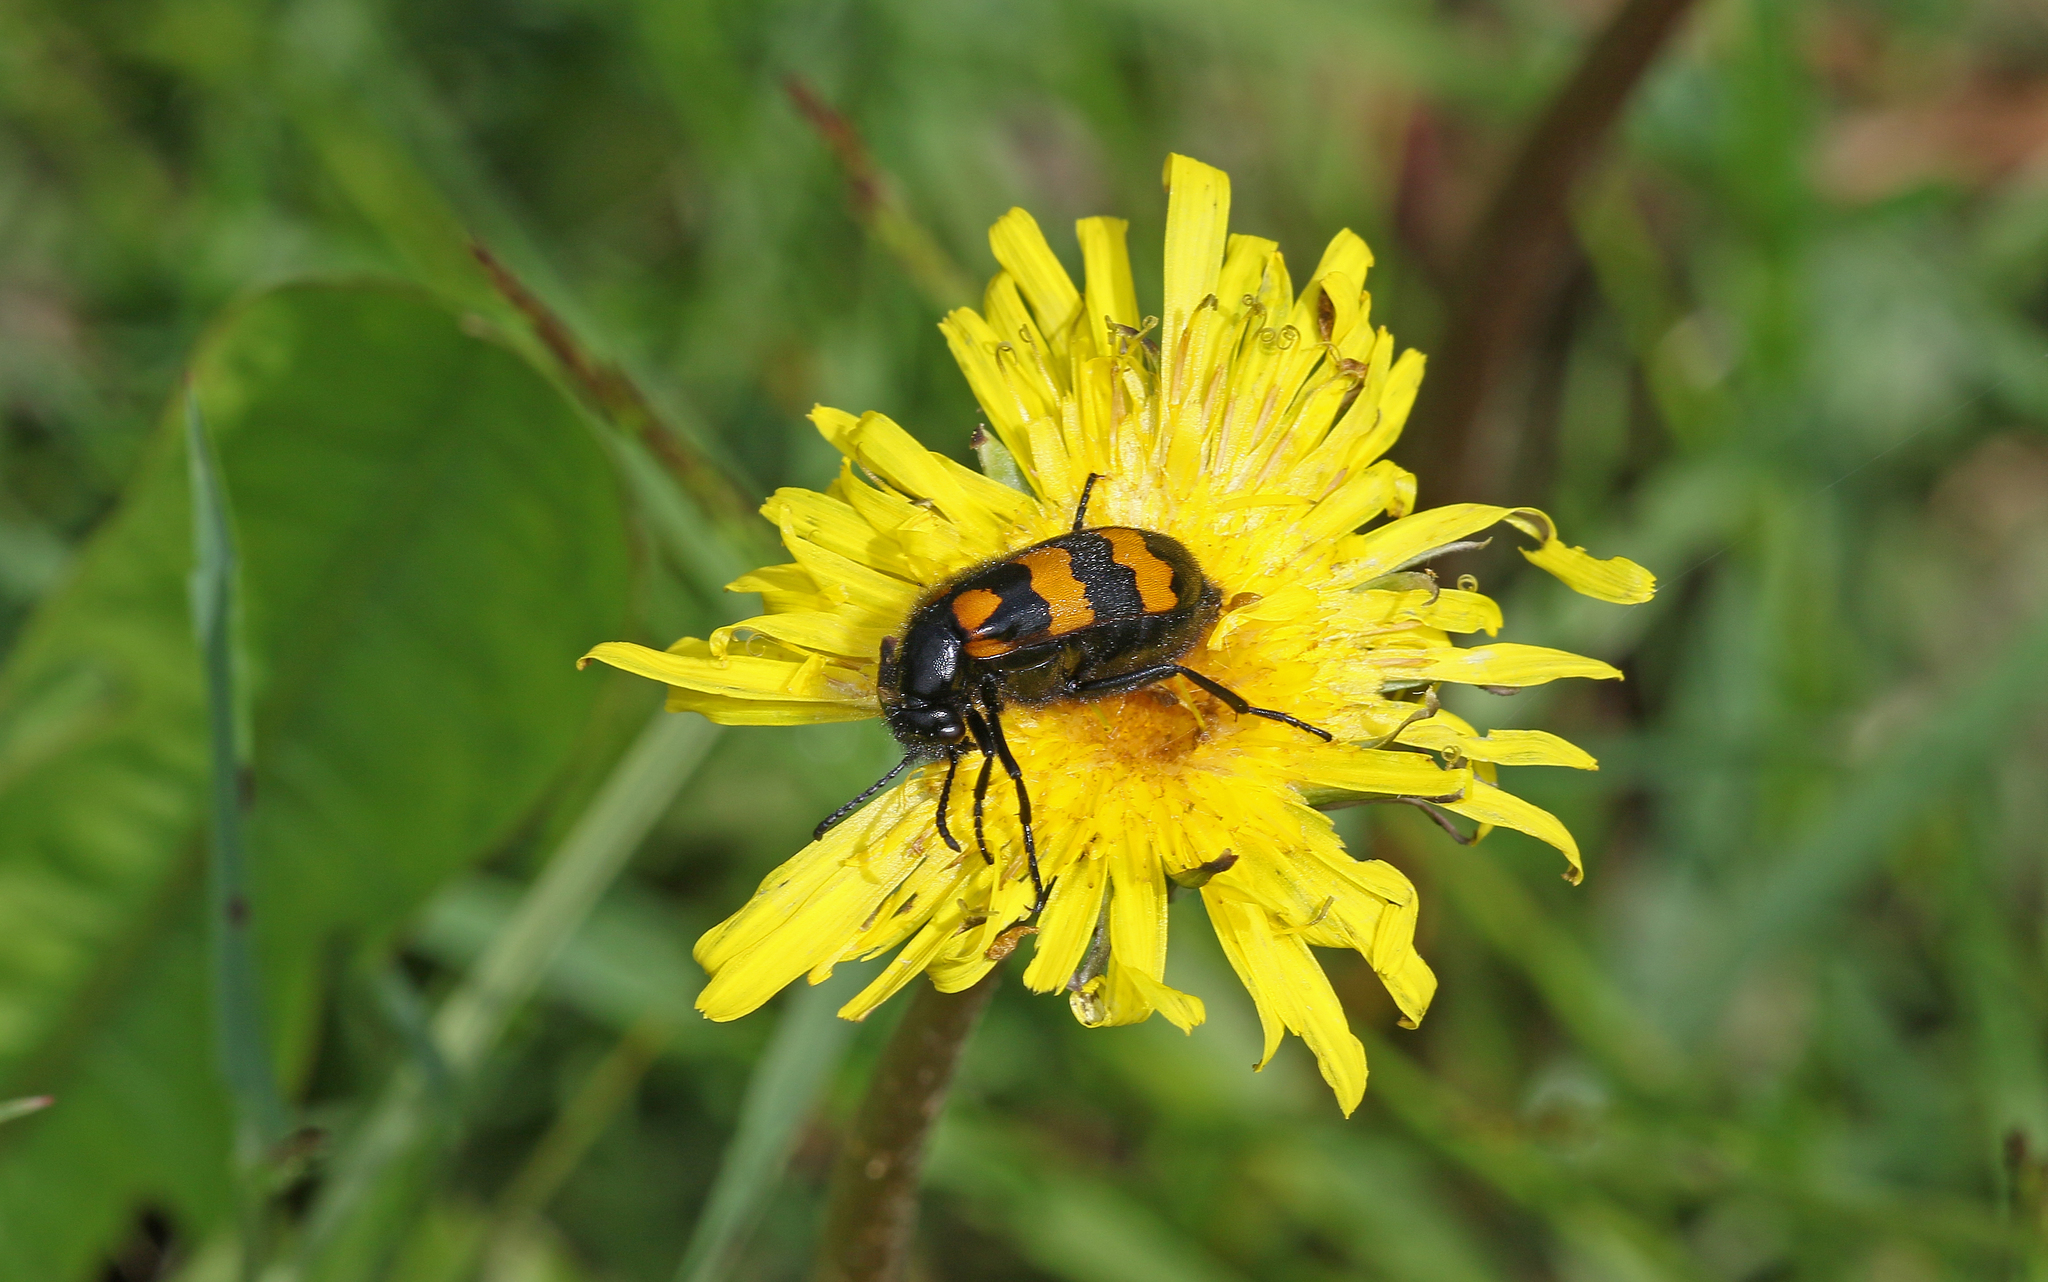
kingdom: Animalia
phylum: Arthropoda
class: Insecta
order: Coleoptera
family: Meloidae
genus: Mylabris
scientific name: Mylabris variabilis
